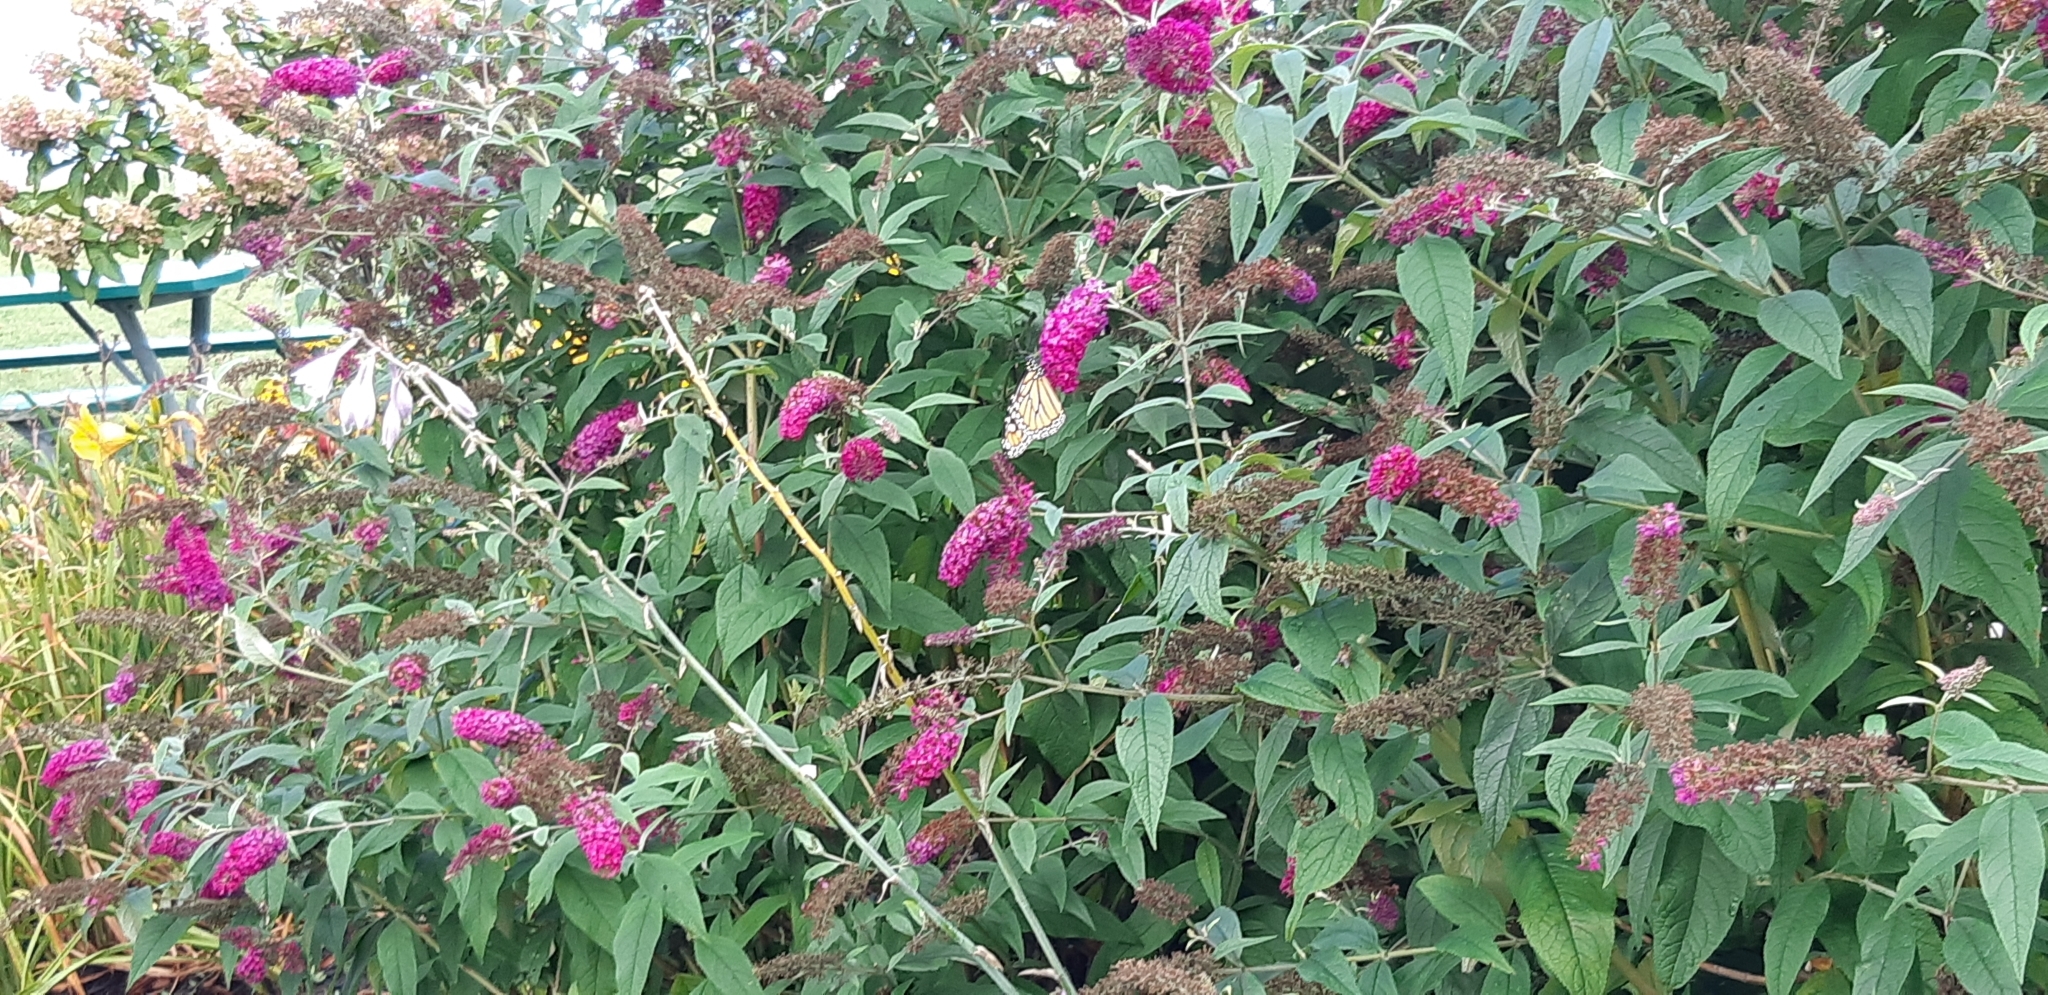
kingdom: Animalia
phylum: Arthropoda
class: Insecta
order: Lepidoptera
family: Nymphalidae
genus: Danaus
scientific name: Danaus plexippus
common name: Monarch
